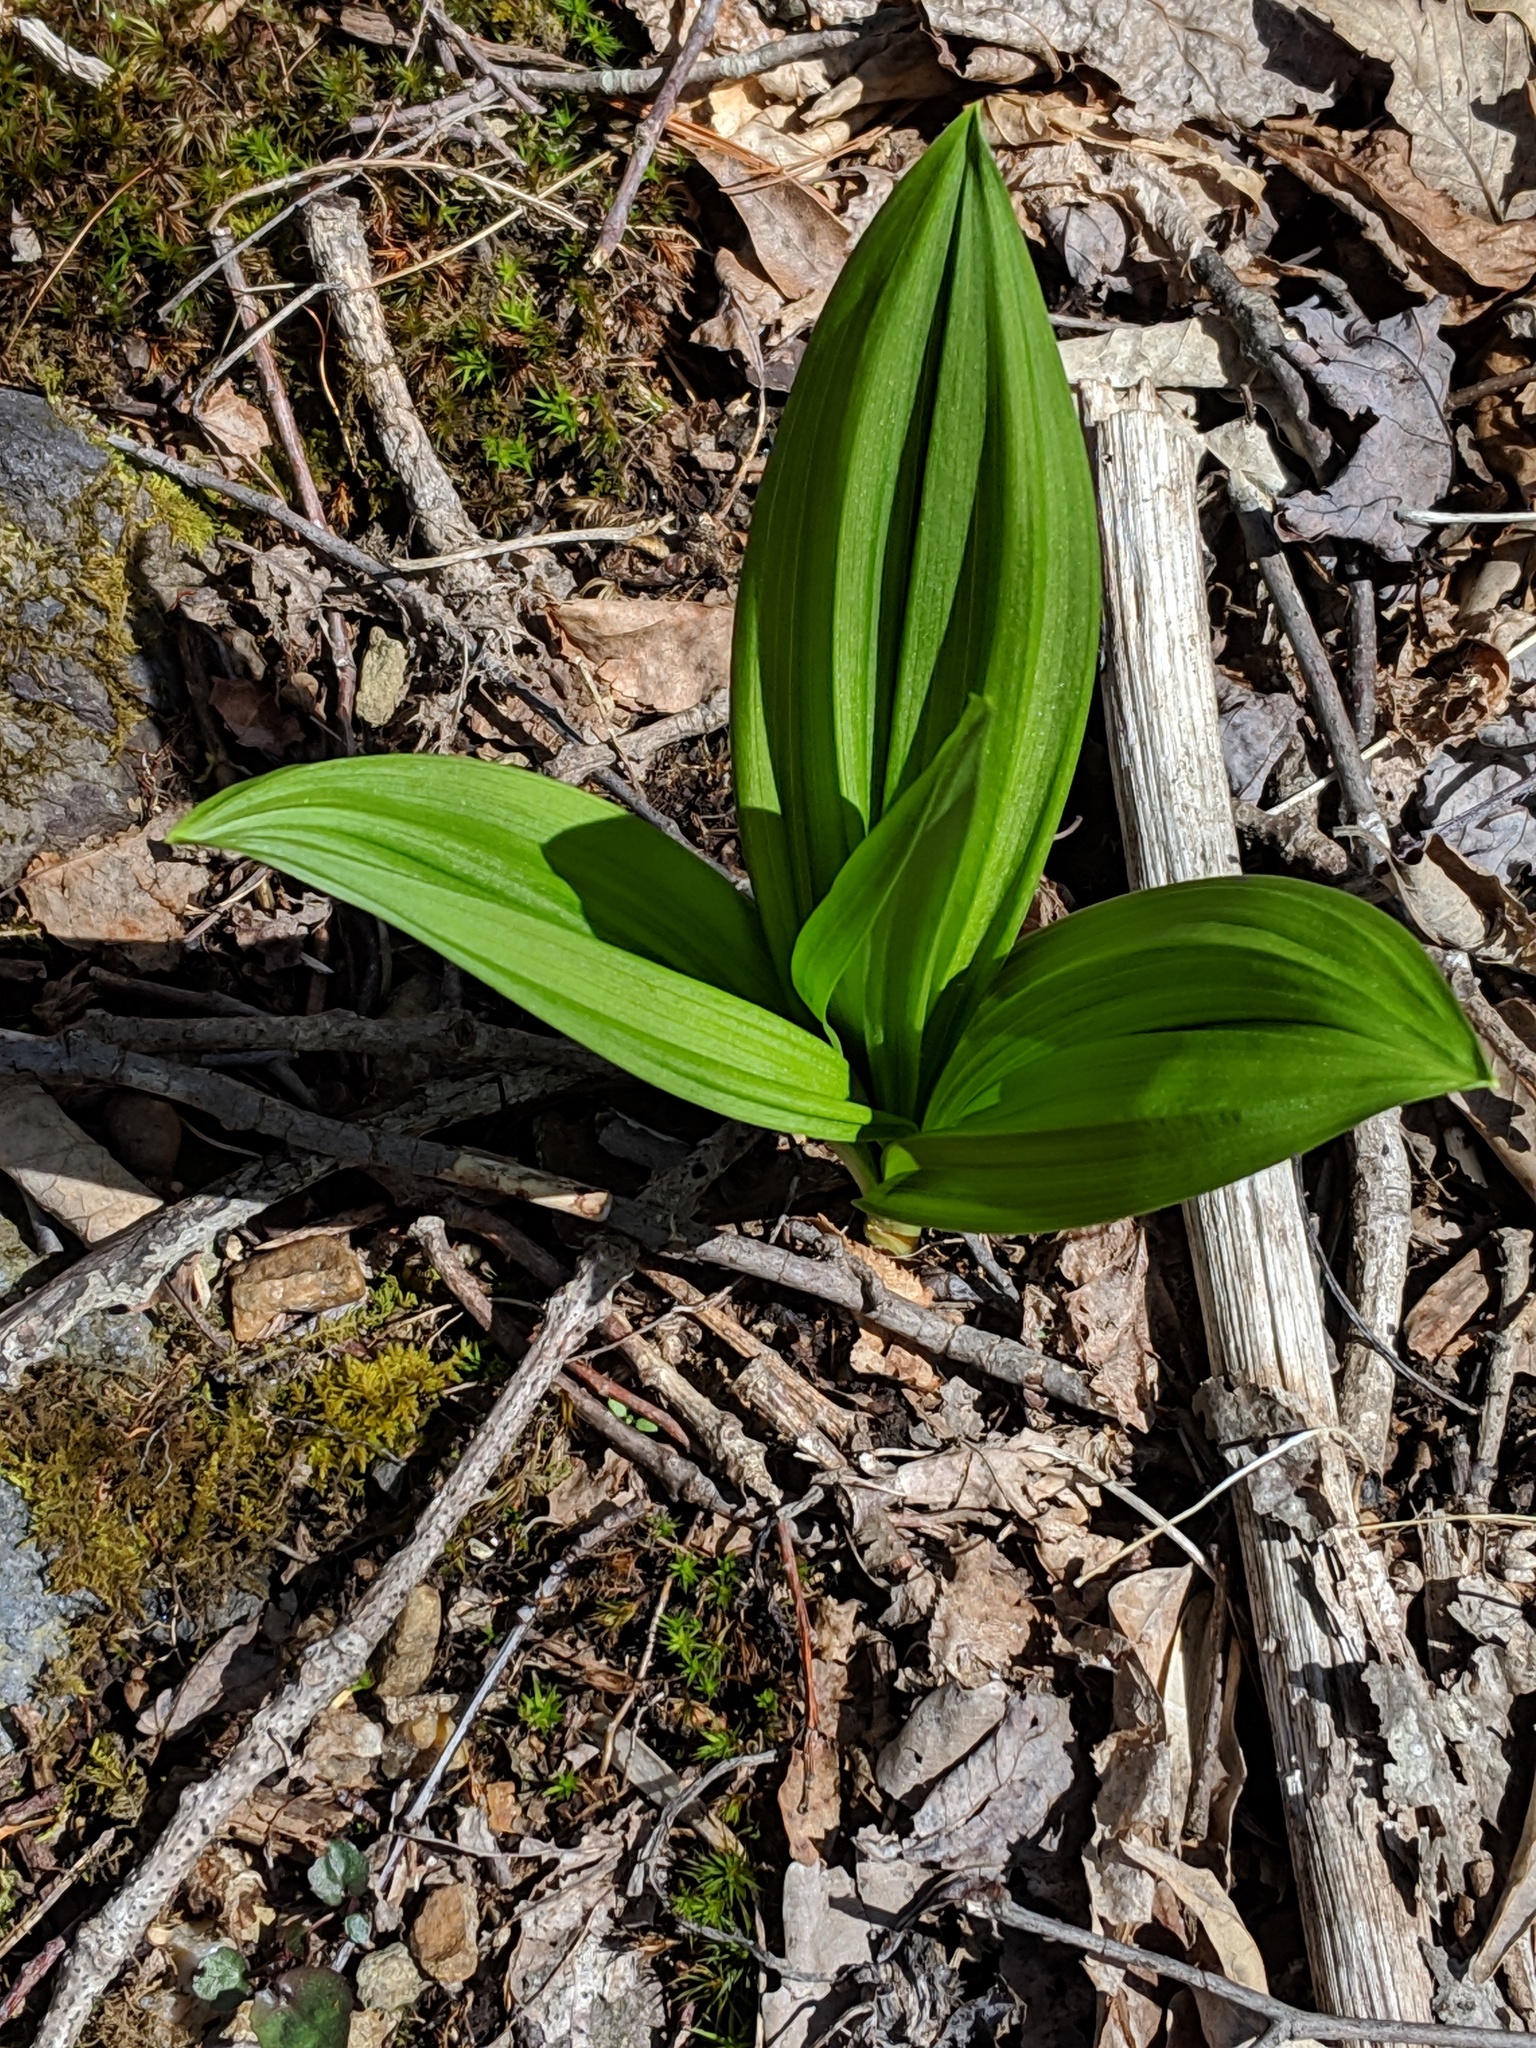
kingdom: Plantae
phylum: Tracheophyta
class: Liliopsida
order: Liliales
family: Melanthiaceae
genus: Veratrum
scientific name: Veratrum viride
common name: American false hellebore
